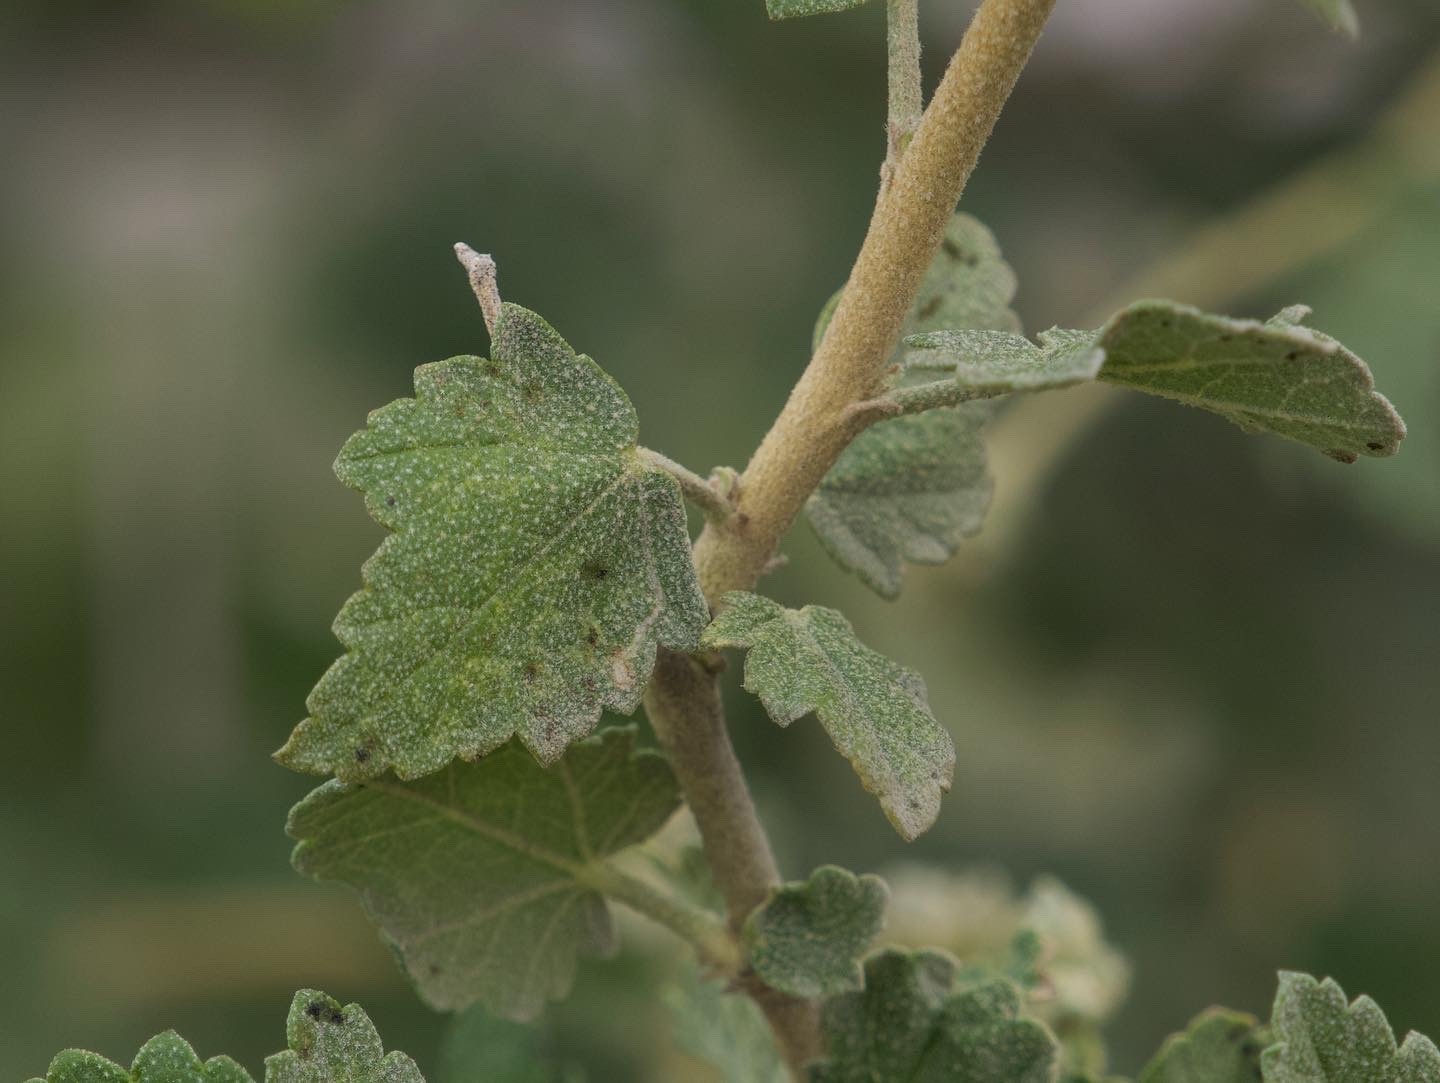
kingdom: Plantae
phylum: Tracheophyta
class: Magnoliopsida
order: Malvales
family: Malvaceae
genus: Malacothamnus
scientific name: Malacothamnus fasciculatus
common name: Sant cruz island bush-mallow
